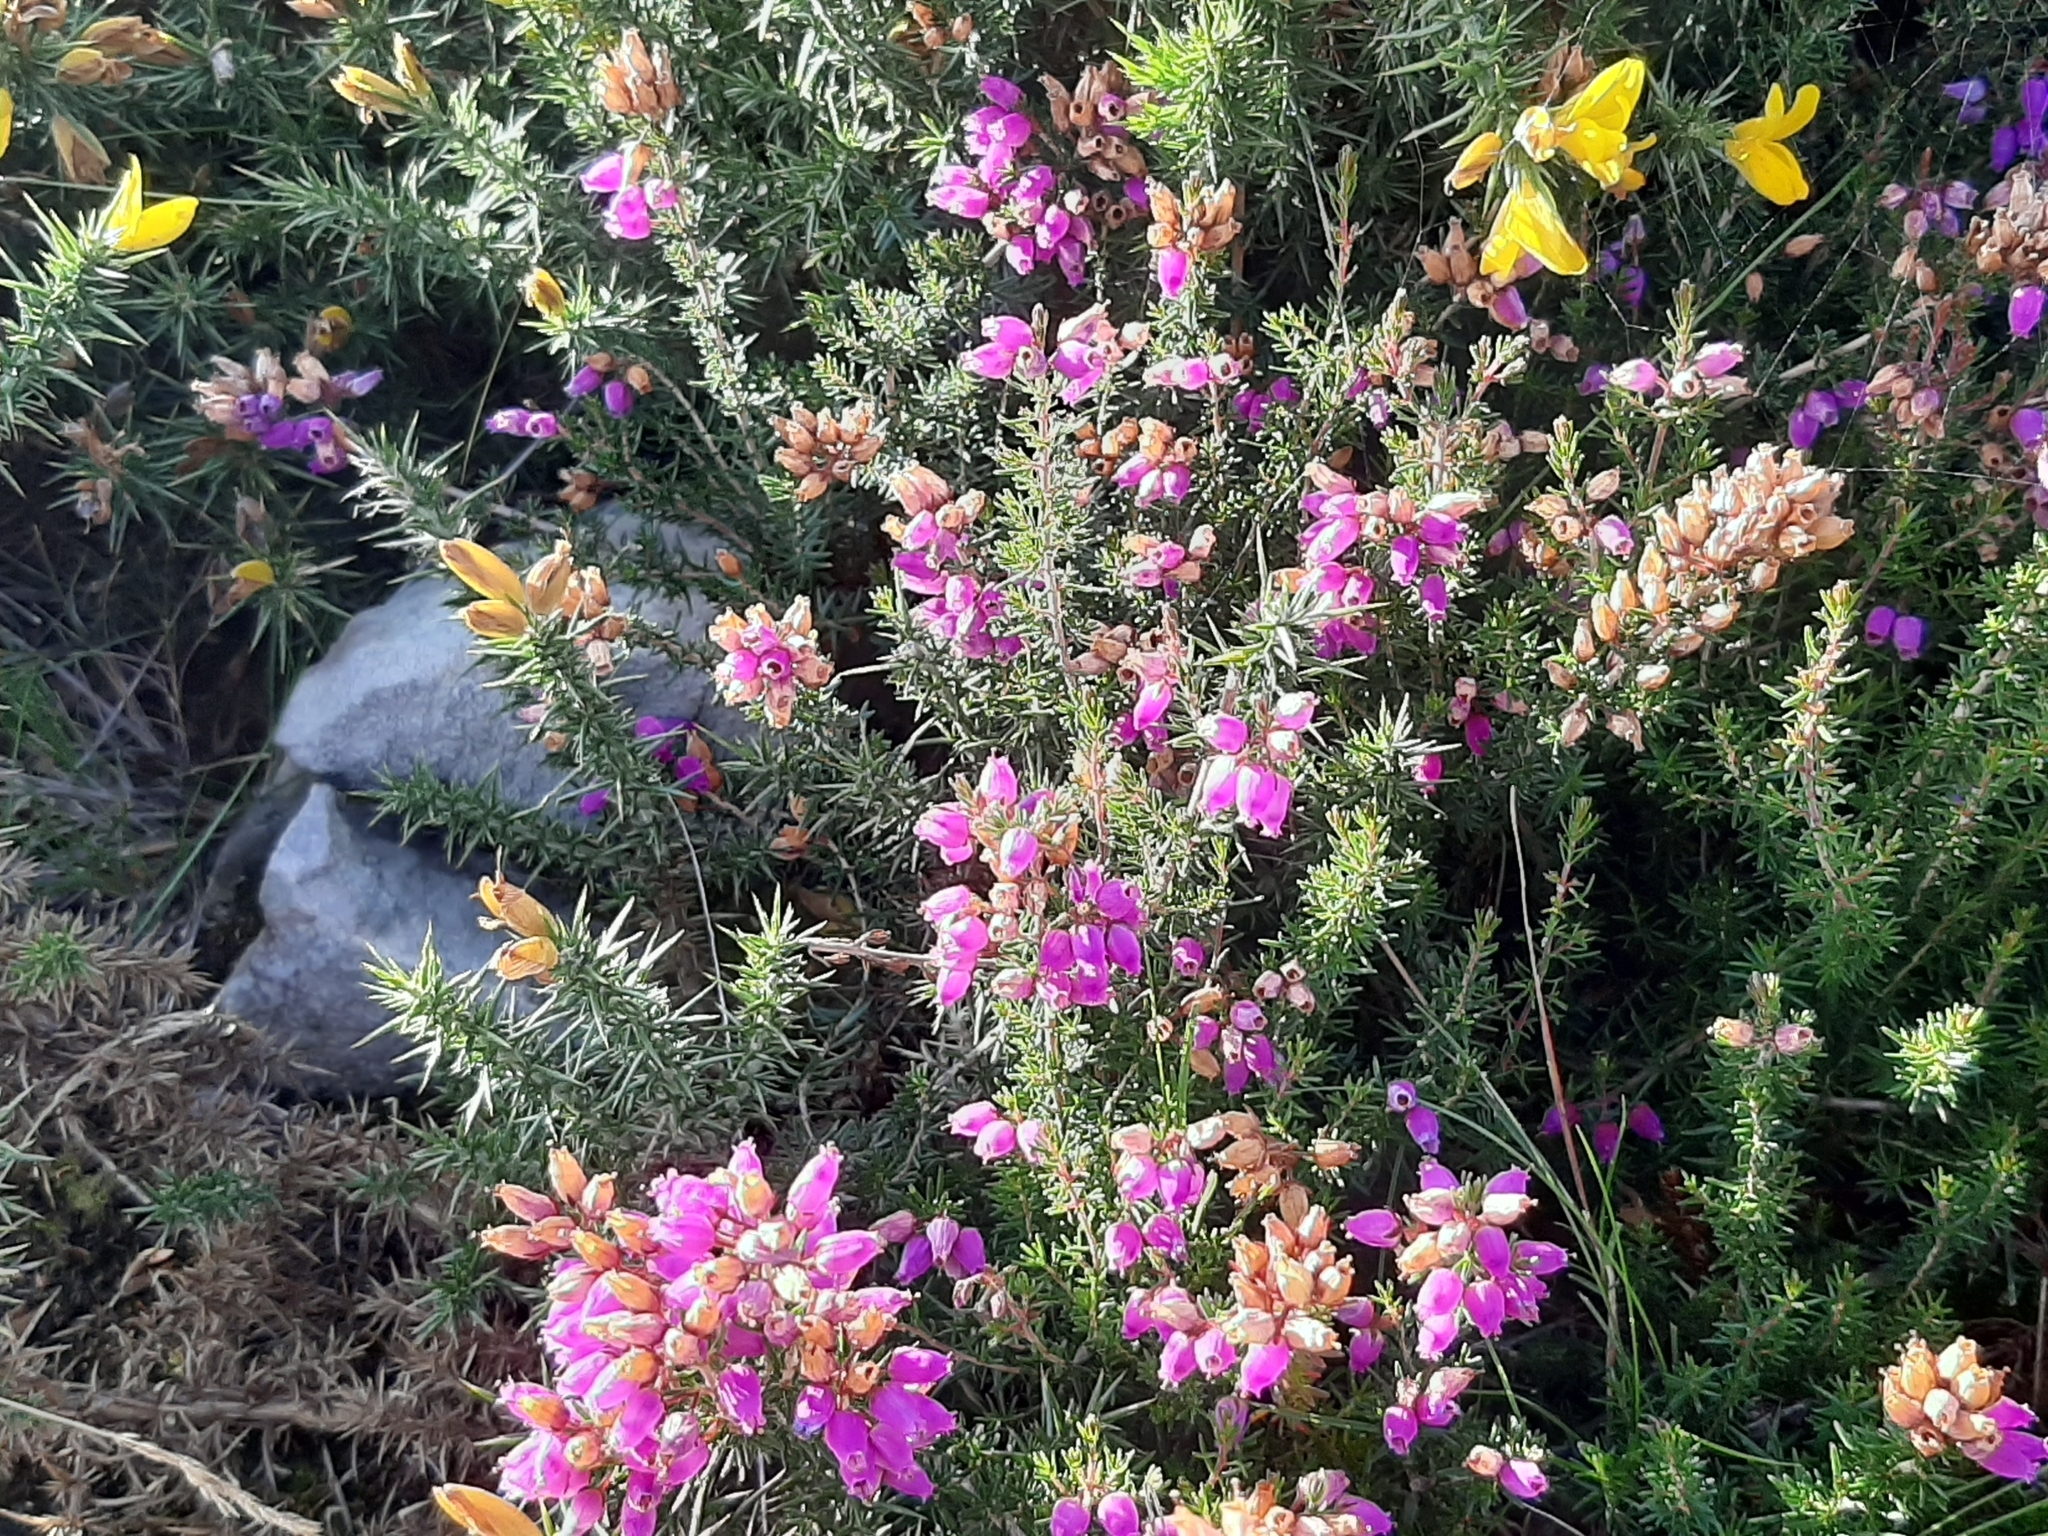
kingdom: Plantae
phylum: Tracheophyta
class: Magnoliopsida
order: Ericales
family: Ericaceae
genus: Erica
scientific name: Erica cinerea
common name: Bell heather
